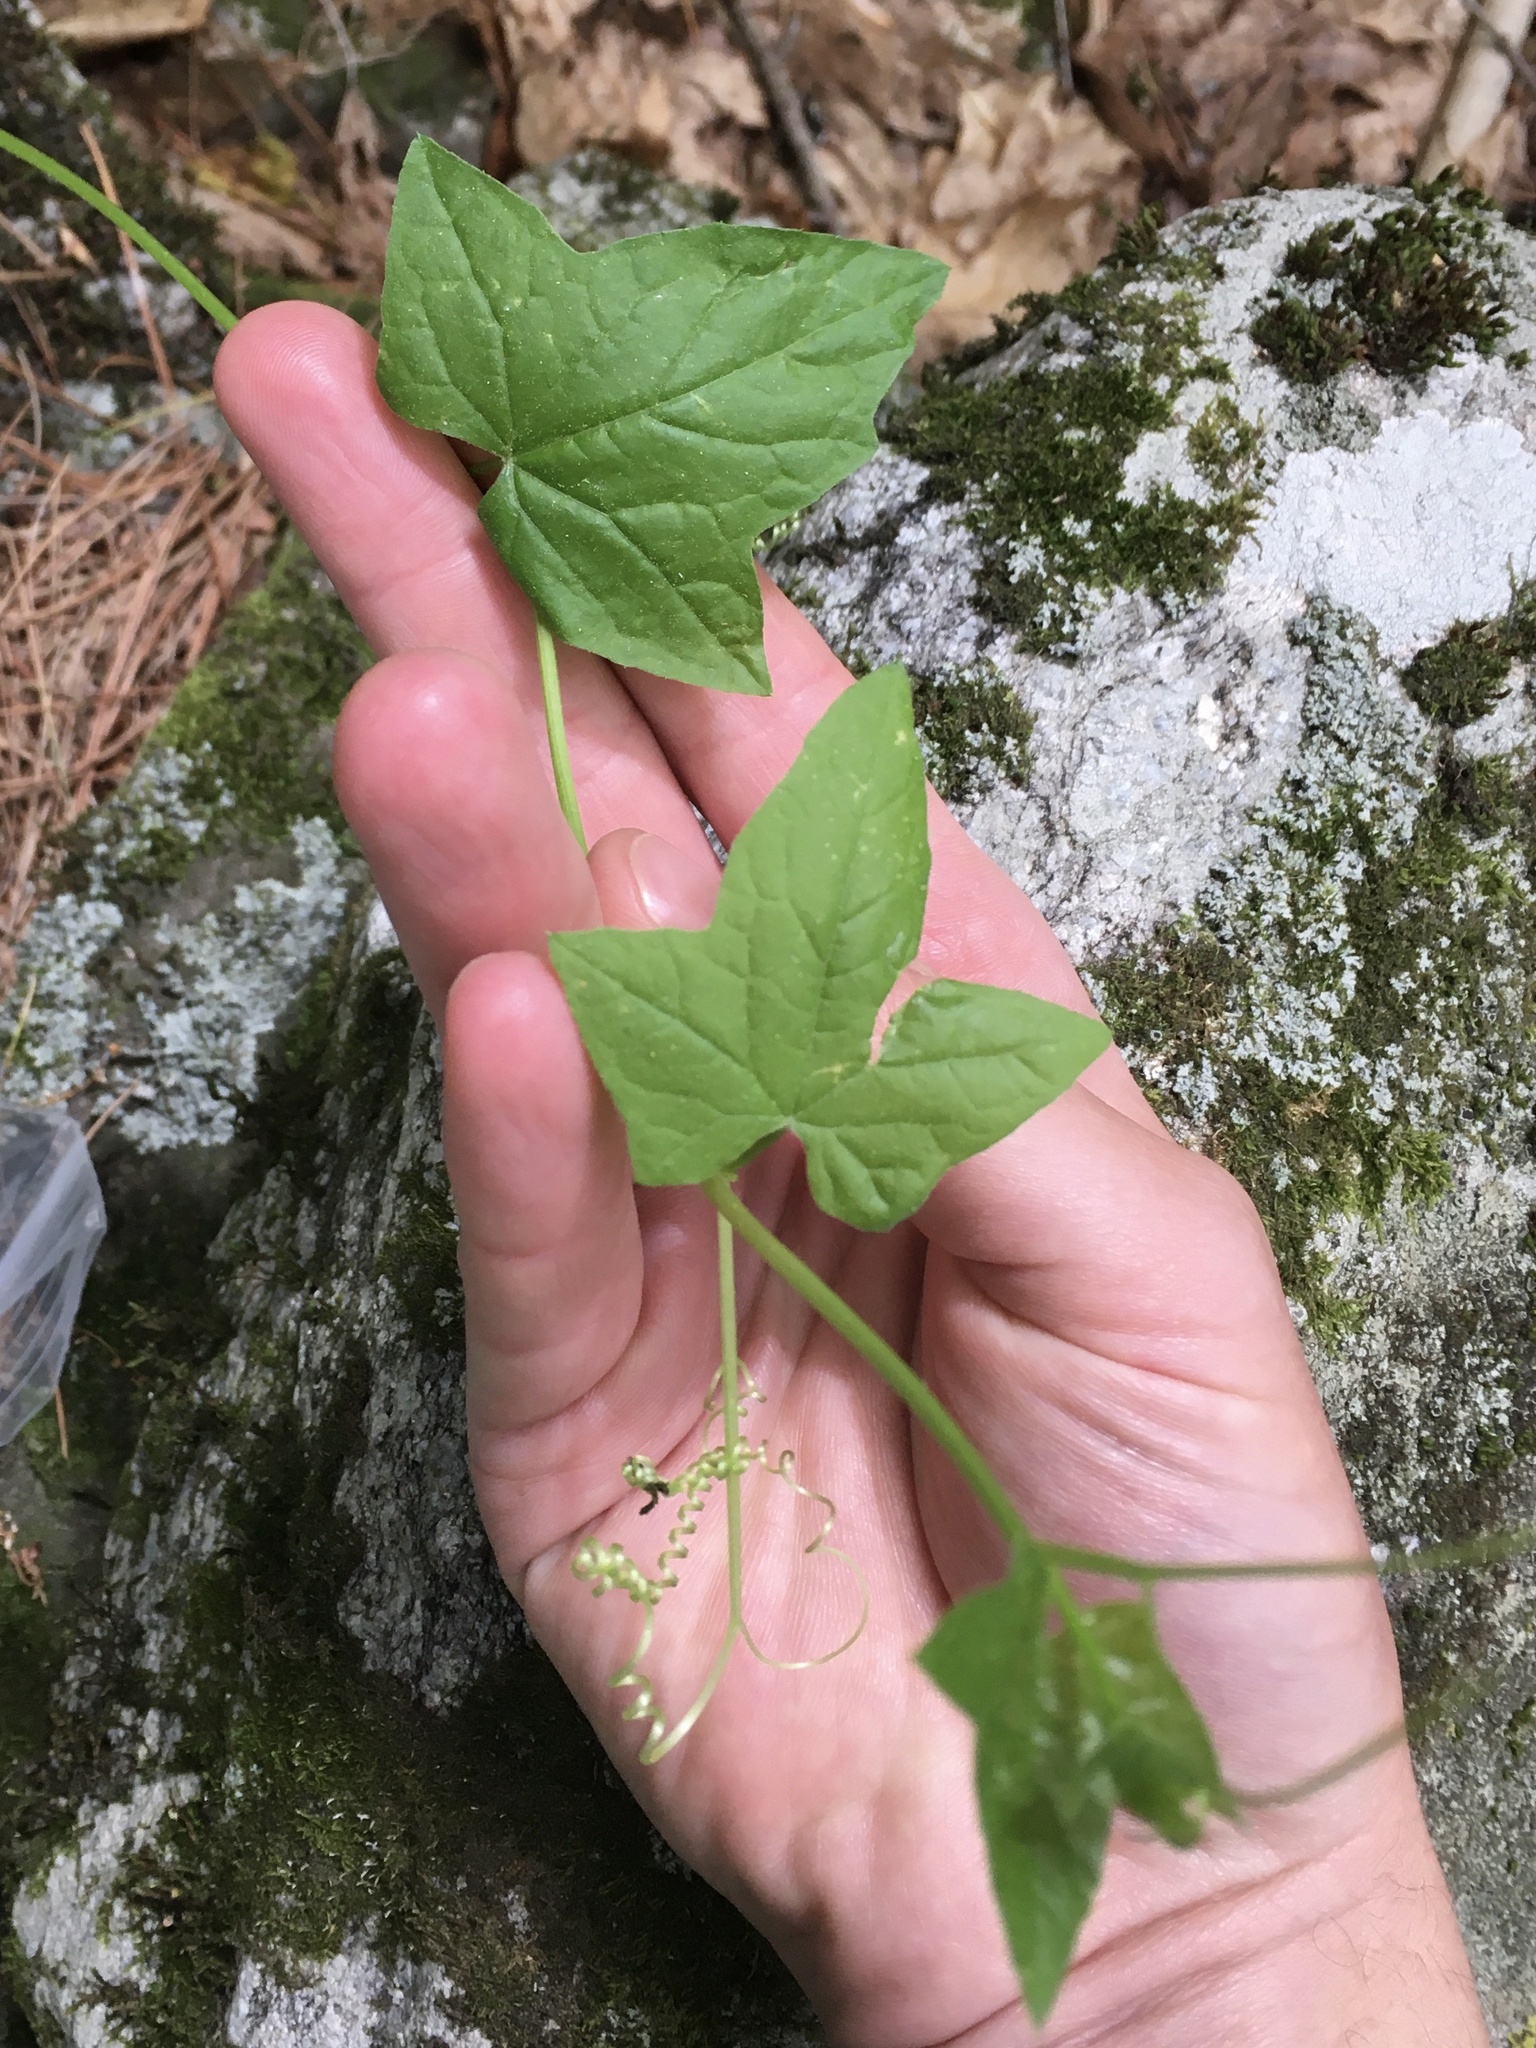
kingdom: Plantae
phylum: Tracheophyta
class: Magnoliopsida
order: Cucurbitales
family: Cucurbitaceae
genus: Echinocystis
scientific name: Echinocystis lobata
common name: Wild cucumber
